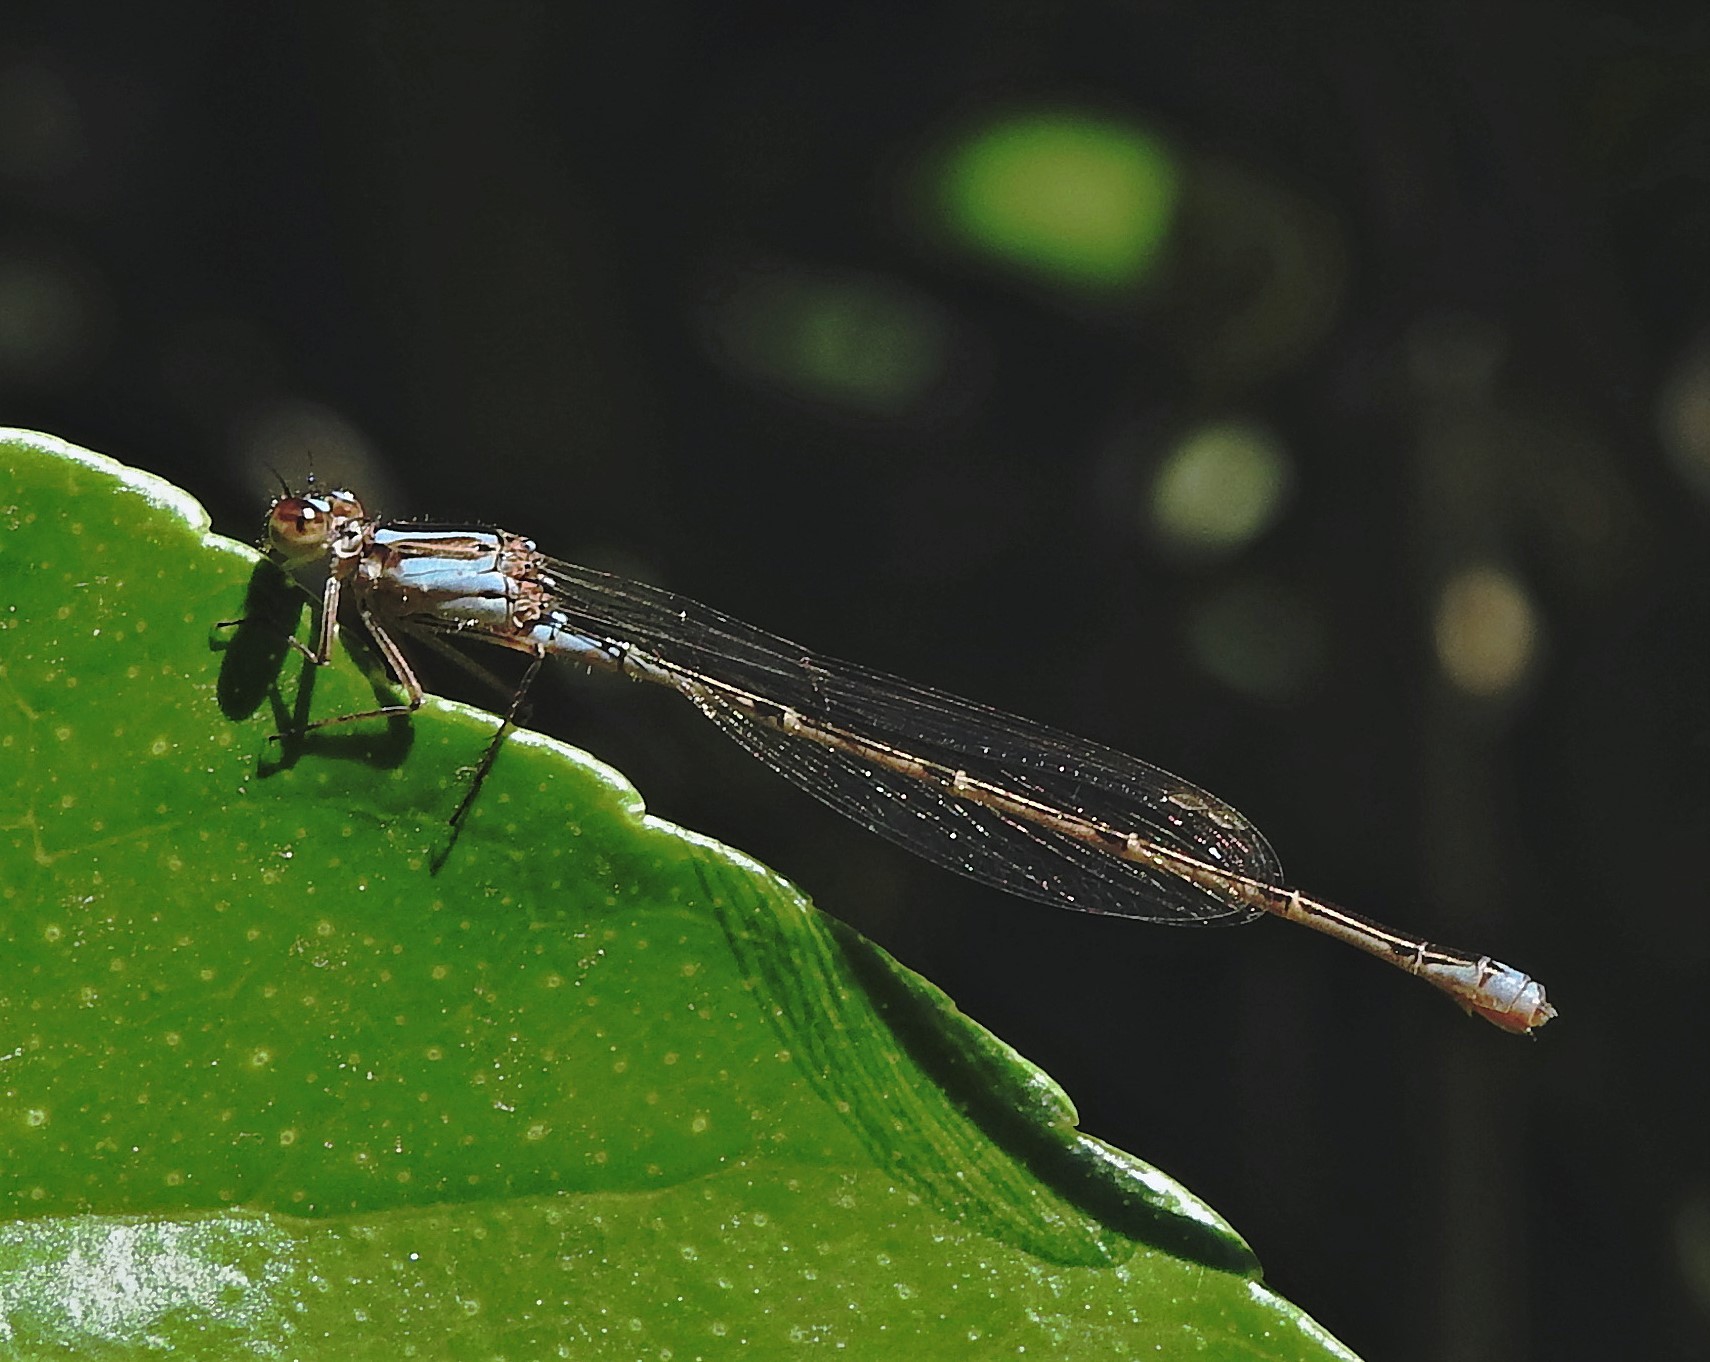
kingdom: Animalia
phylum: Arthropoda
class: Insecta
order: Odonata
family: Coenagrionidae
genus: Homeoura
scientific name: Homeoura chelifera
